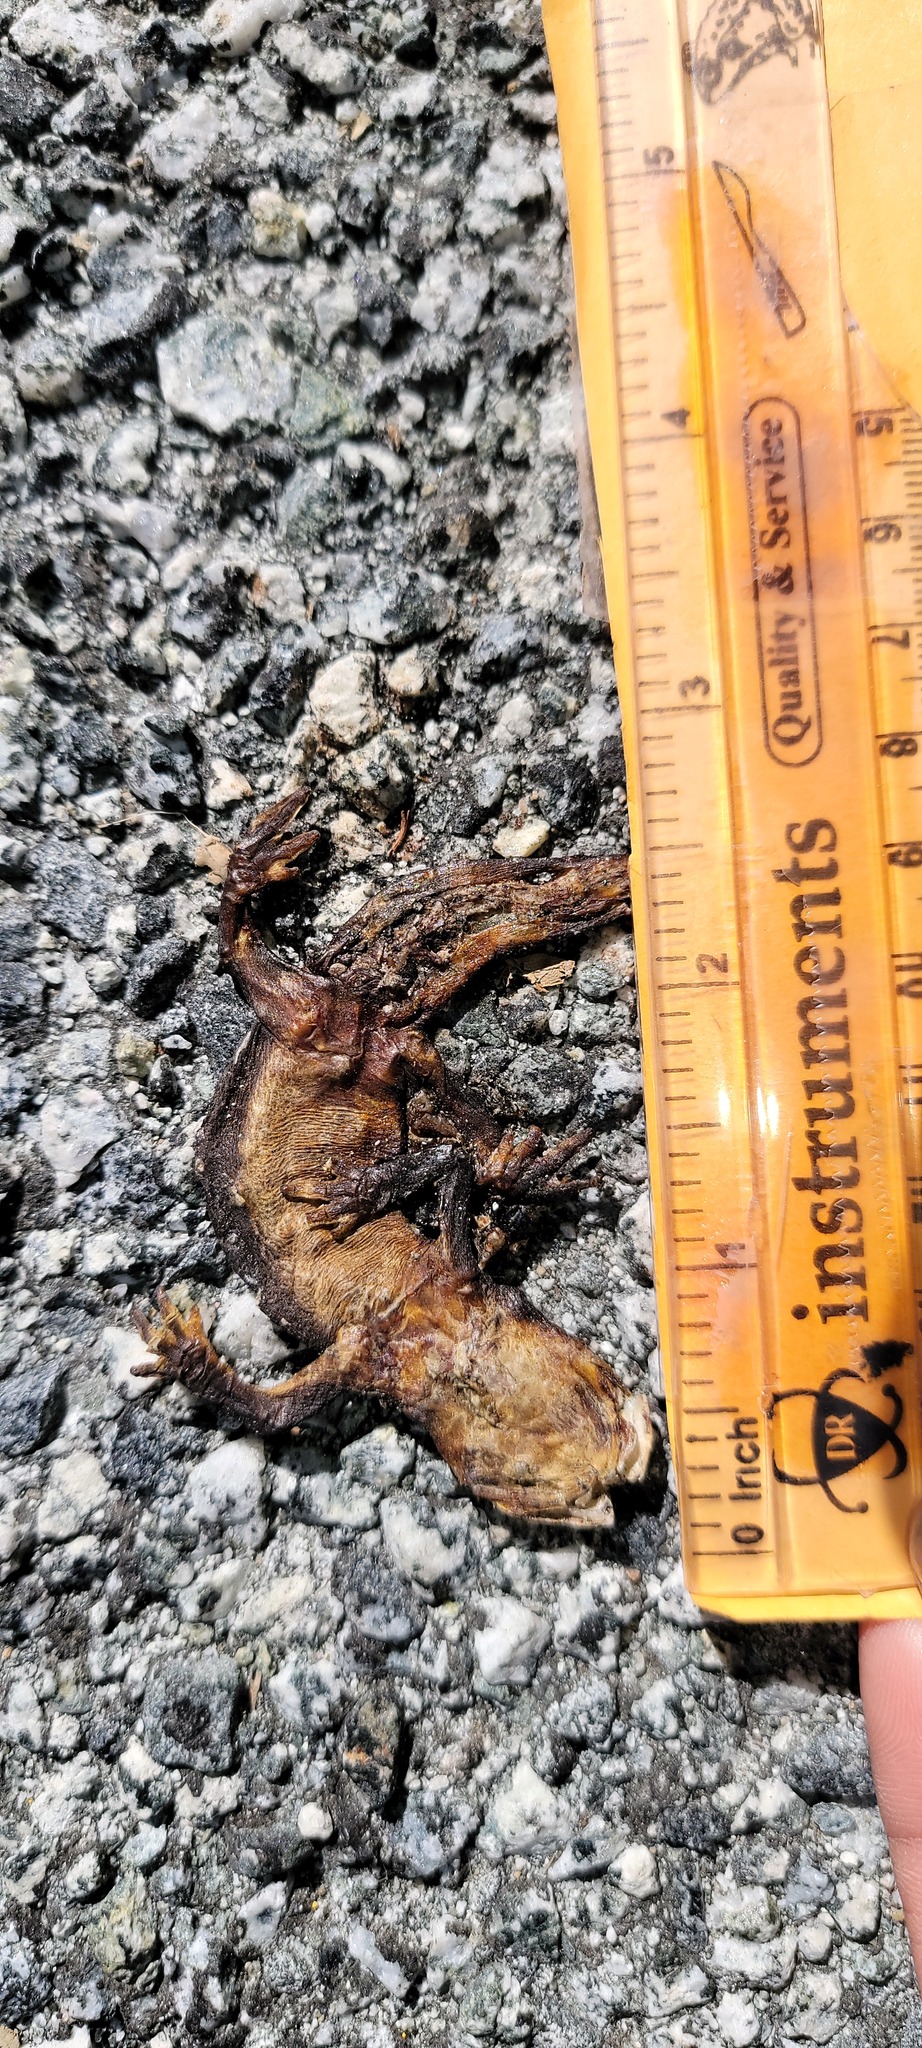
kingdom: Animalia
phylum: Chordata
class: Amphibia
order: Caudata
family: Salamandridae
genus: Taricha
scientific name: Taricha
